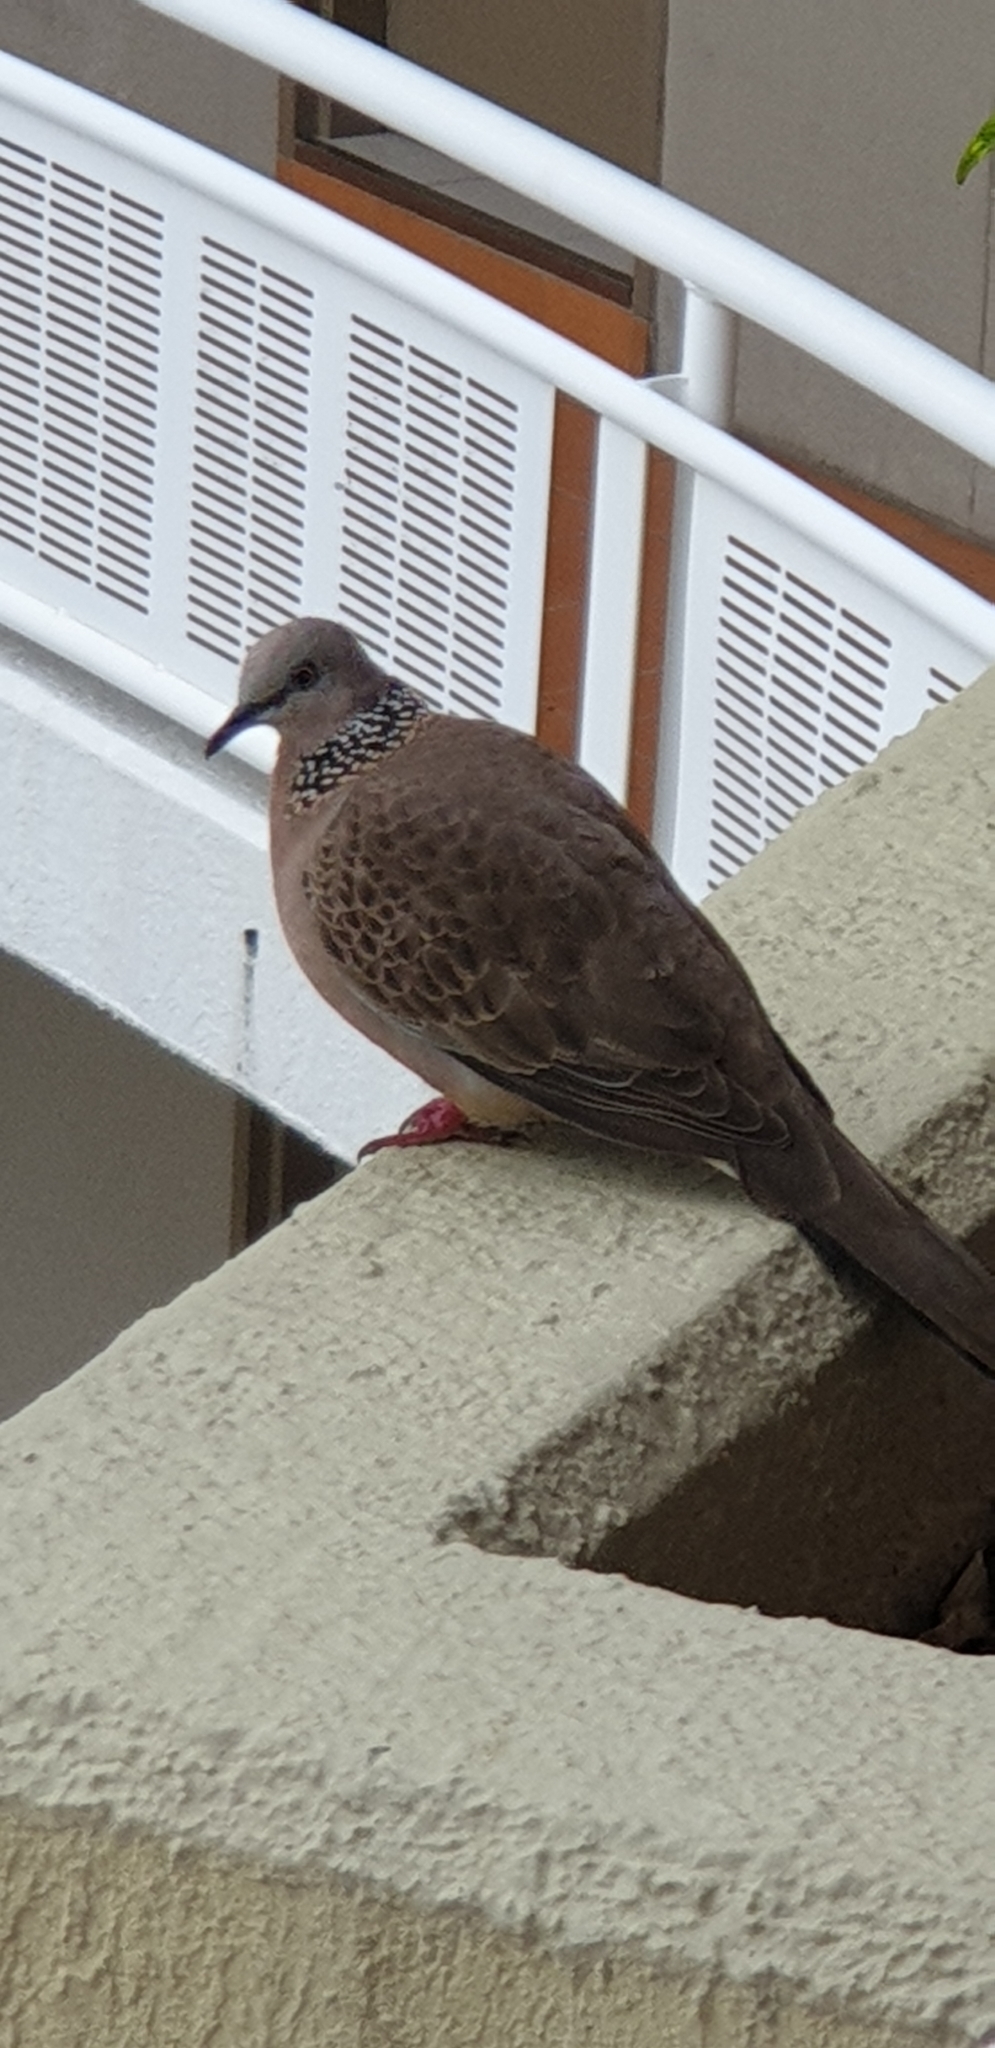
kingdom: Animalia
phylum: Chordata
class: Aves
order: Columbiformes
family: Columbidae
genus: Spilopelia
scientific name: Spilopelia chinensis
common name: Spotted dove
